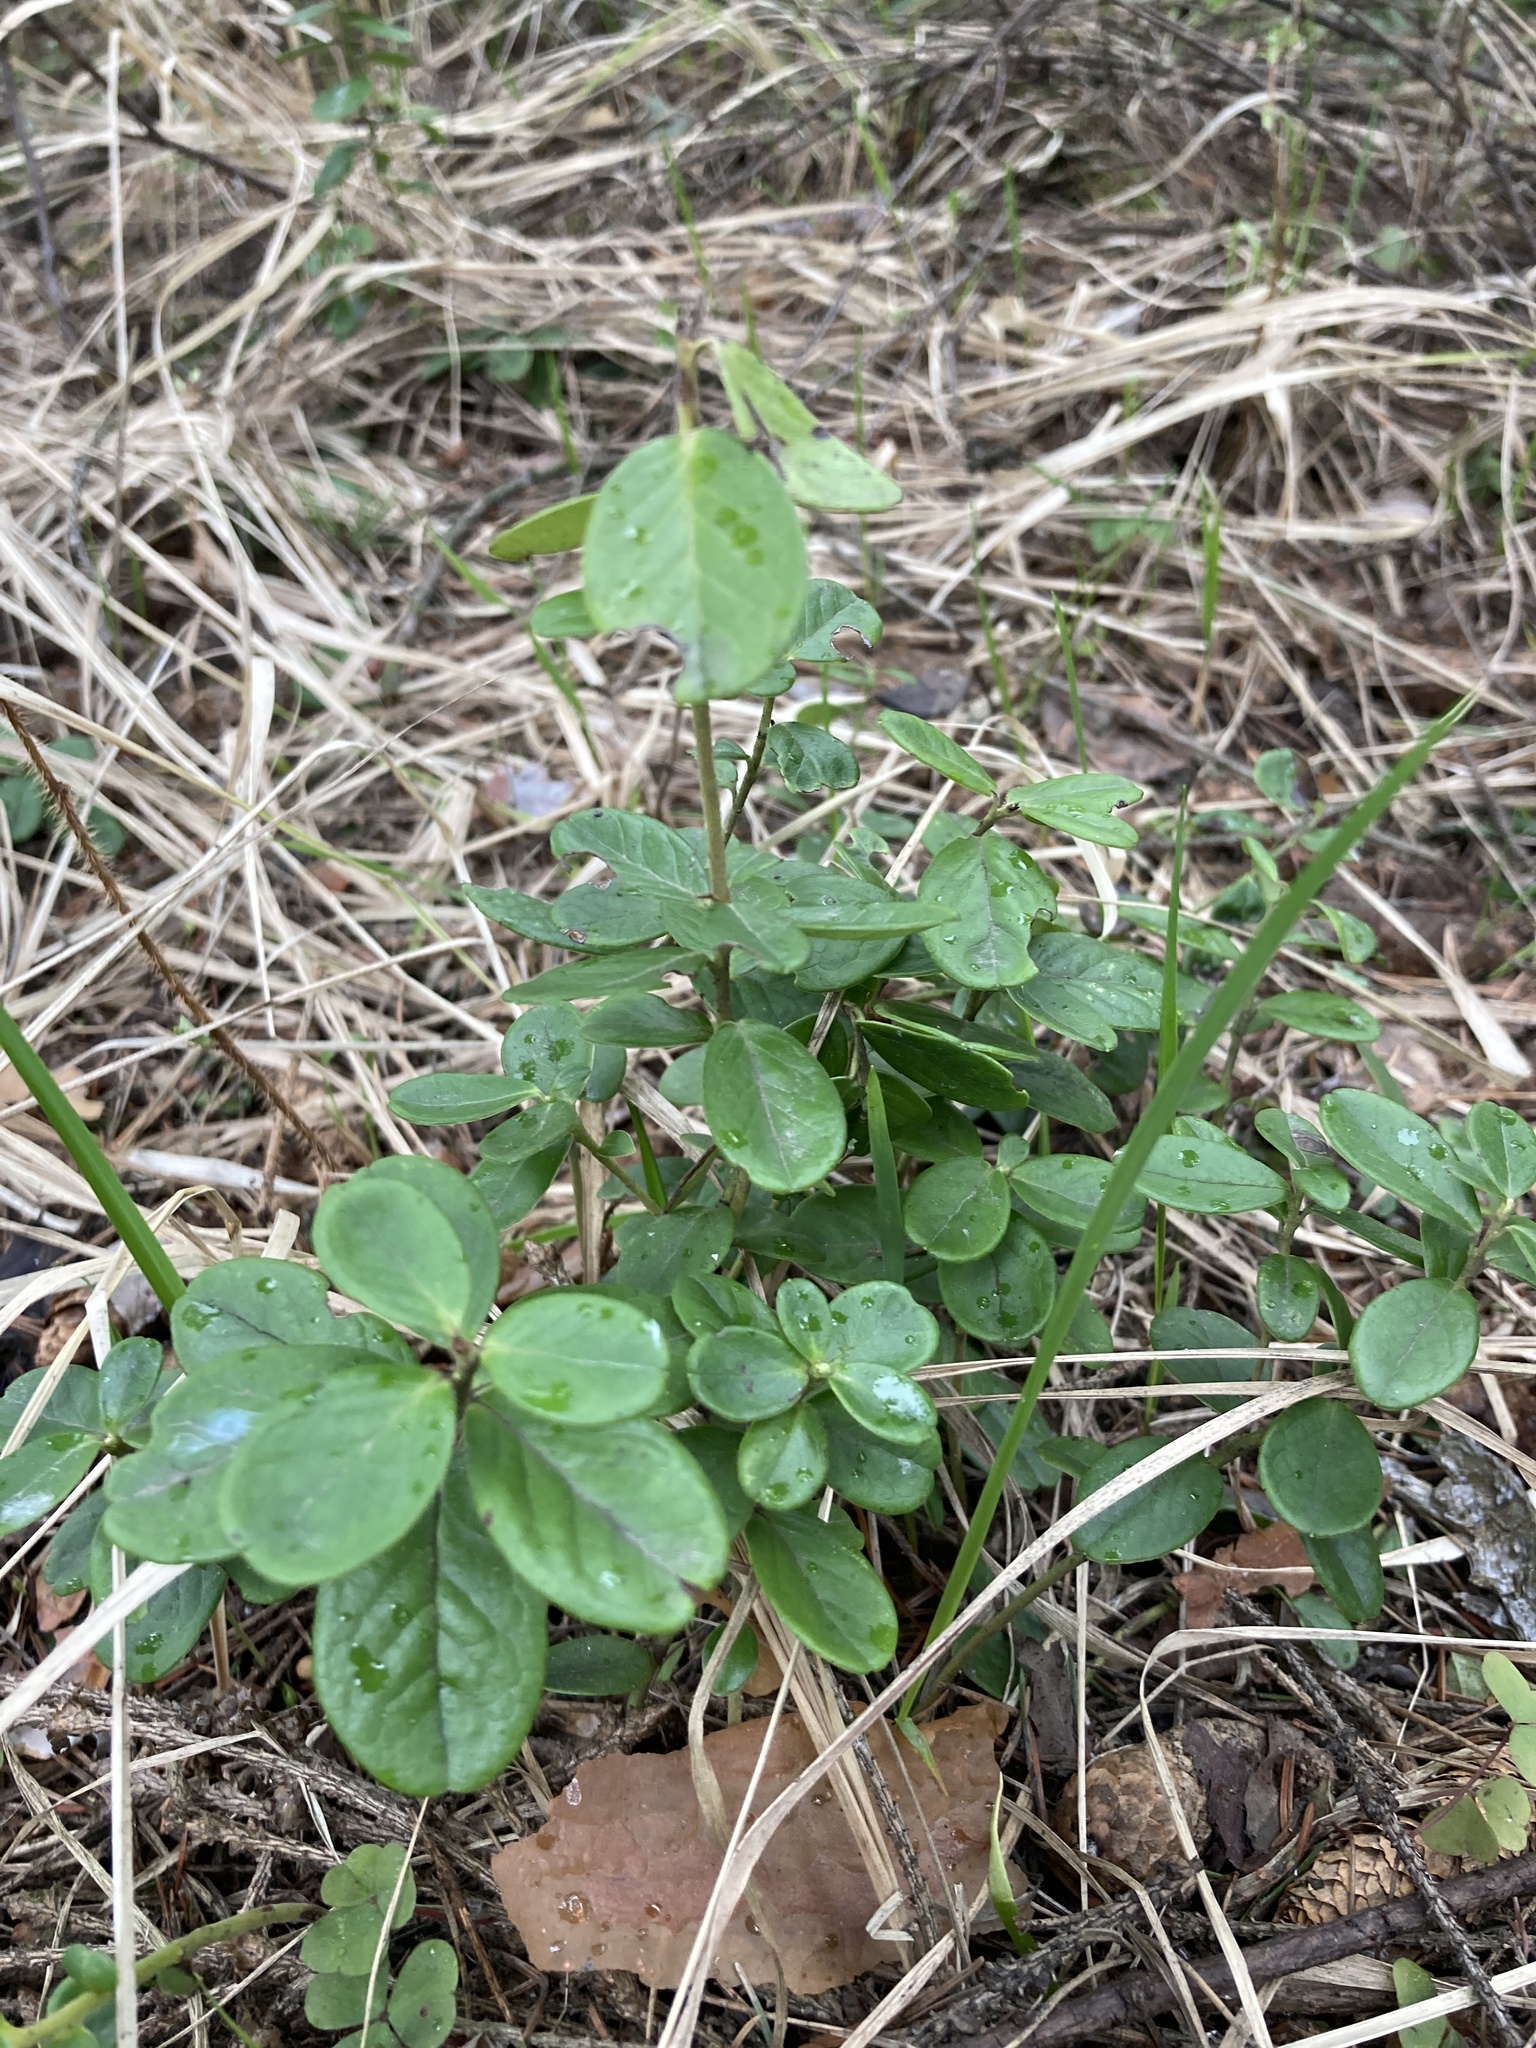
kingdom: Plantae
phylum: Tracheophyta
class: Magnoliopsida
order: Ericales
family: Ericaceae
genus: Vaccinium
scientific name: Vaccinium vitis-idaea
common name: Cowberry
